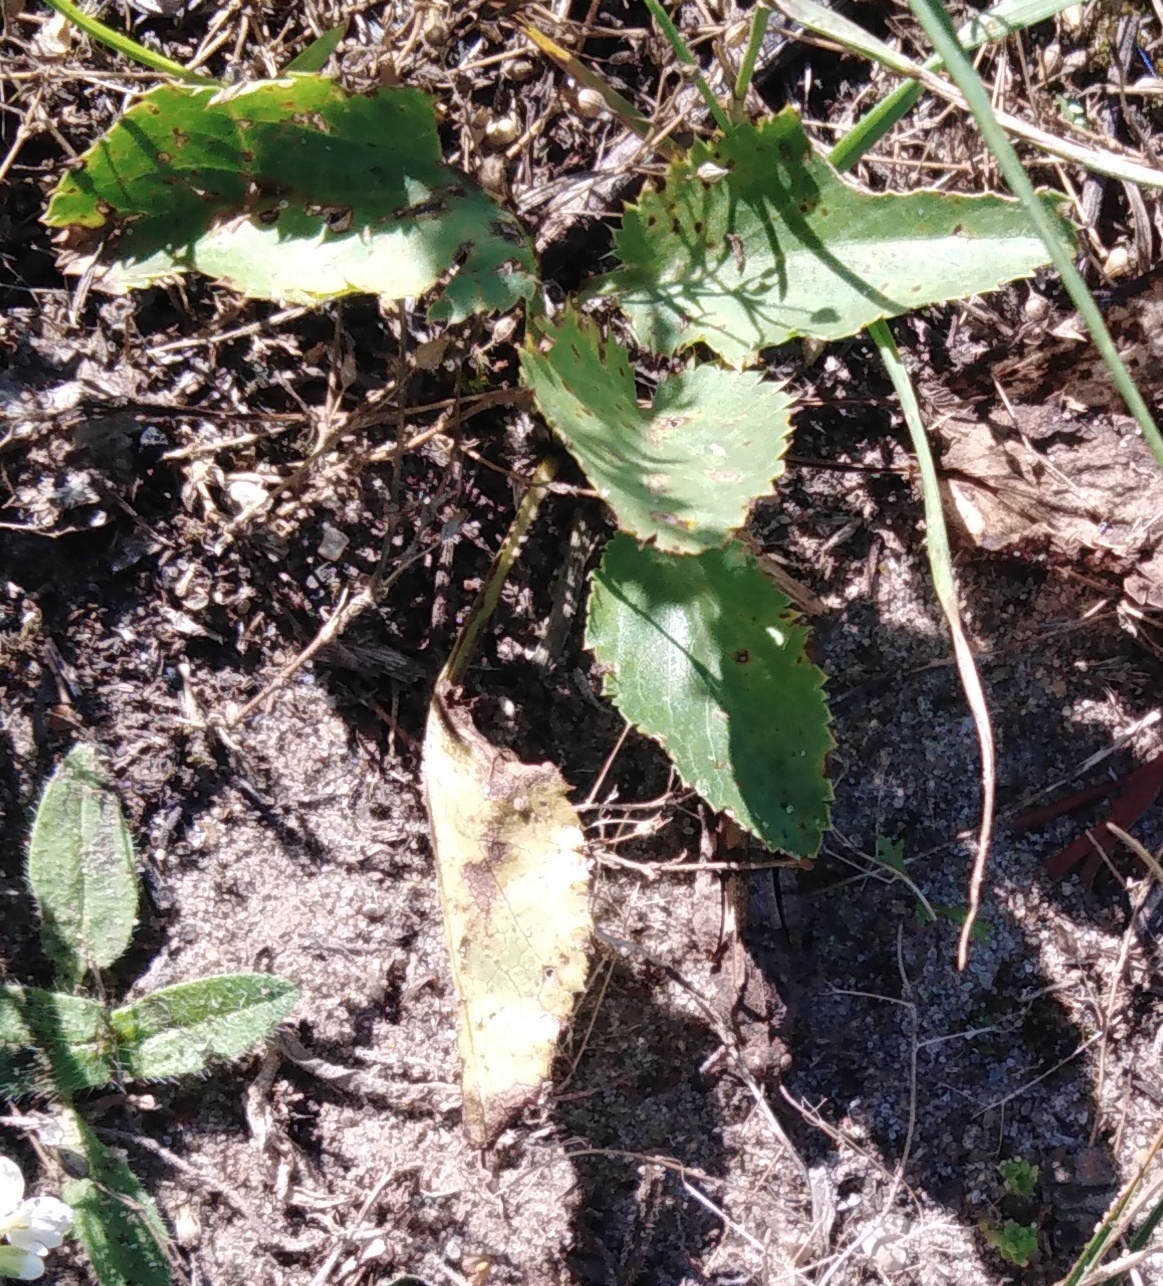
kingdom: Plantae
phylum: Tracheophyta
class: Magnoliopsida
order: Rosales
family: Rosaceae
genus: Sanguisorba
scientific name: Sanguisorba officinalis
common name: Great burnet
